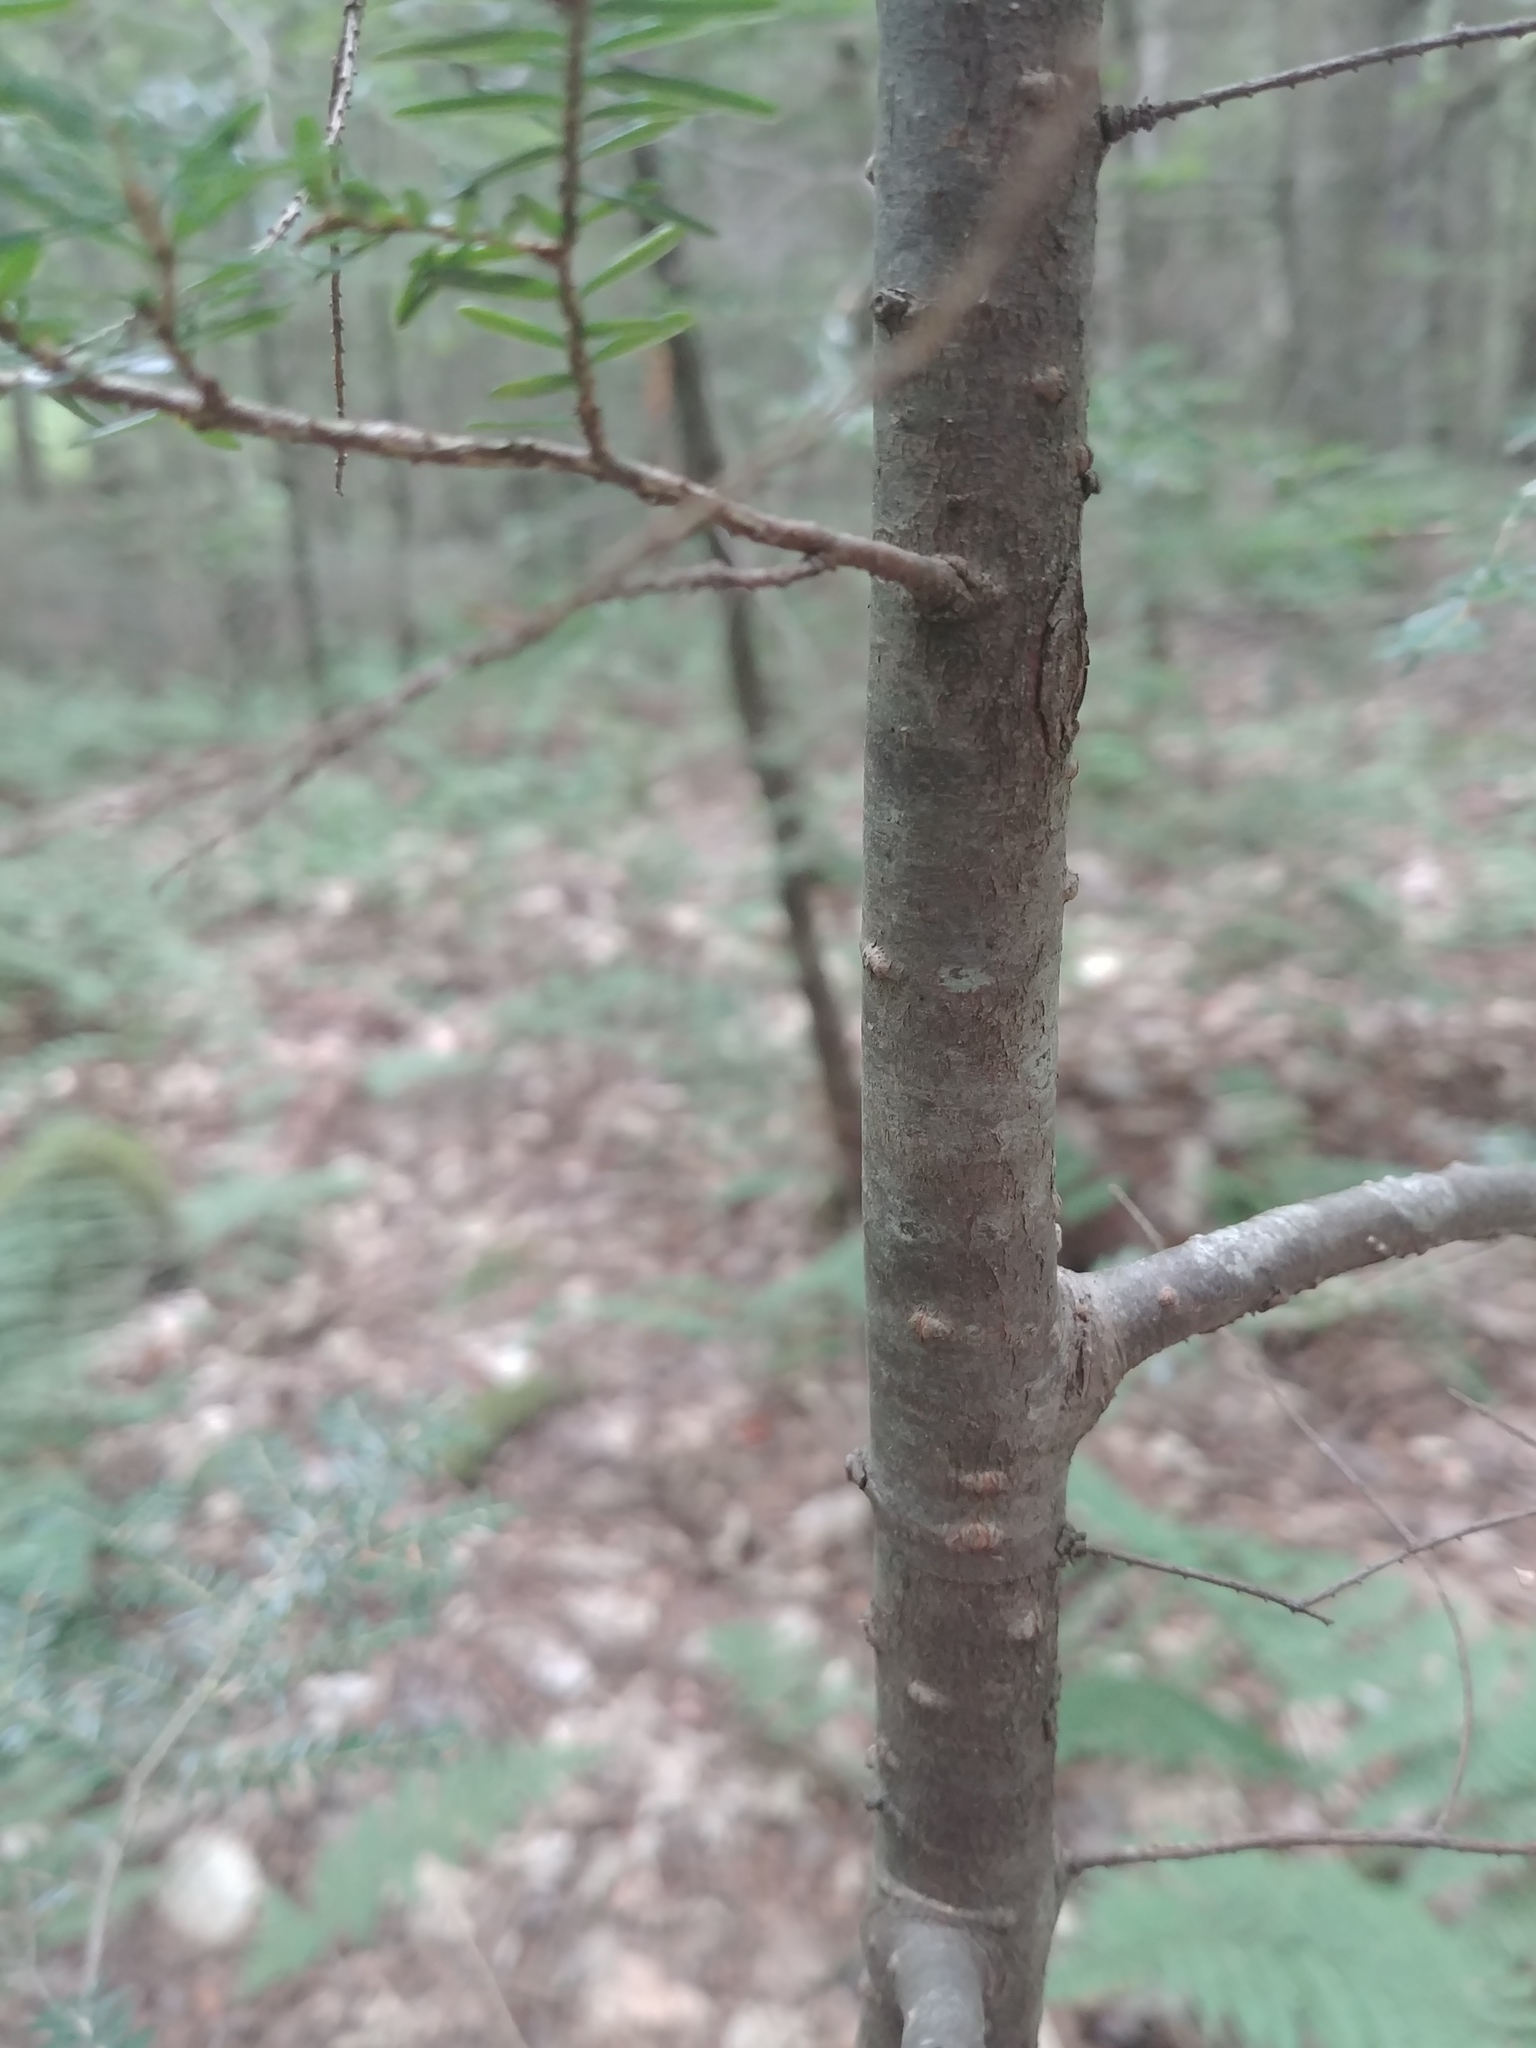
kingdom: Plantae
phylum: Tracheophyta
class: Pinopsida
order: Pinales
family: Pinaceae
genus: Tsuga
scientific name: Tsuga canadensis
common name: Eastern hemlock
